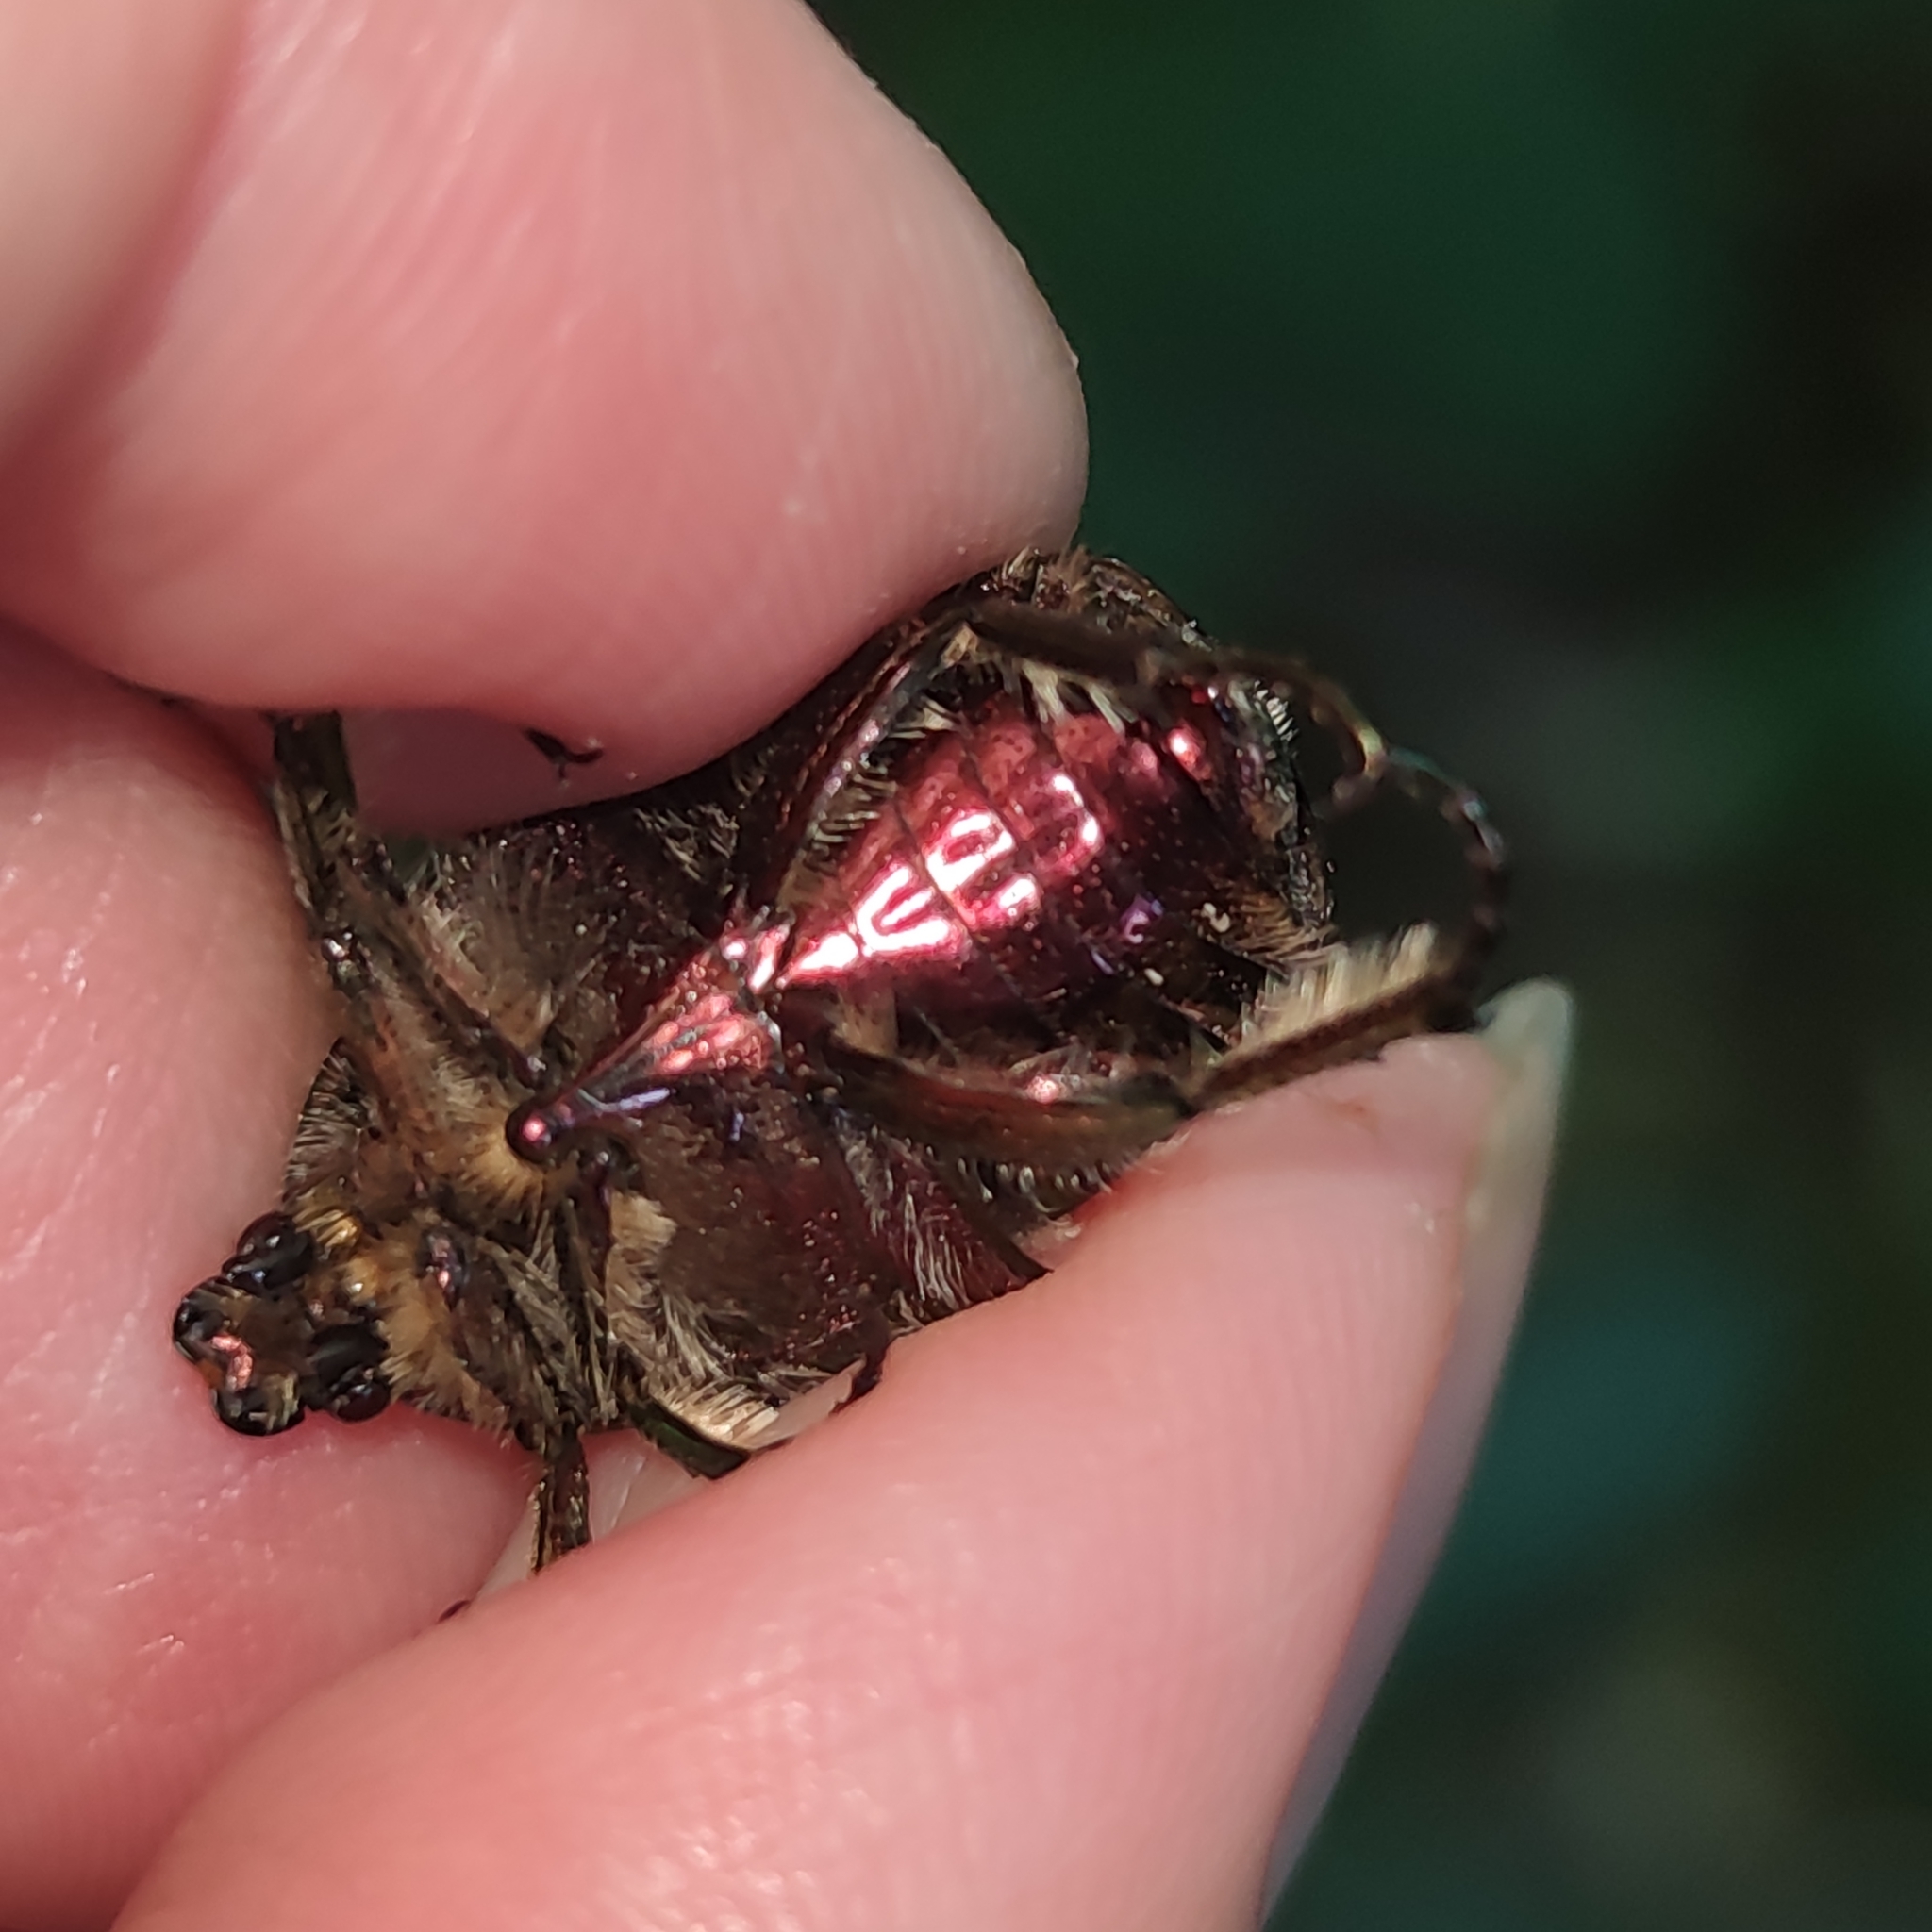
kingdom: Animalia
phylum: Arthropoda
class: Insecta
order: Coleoptera
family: Scarabaeidae
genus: Cetonia
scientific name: Cetonia aurata
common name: Rose chafer
